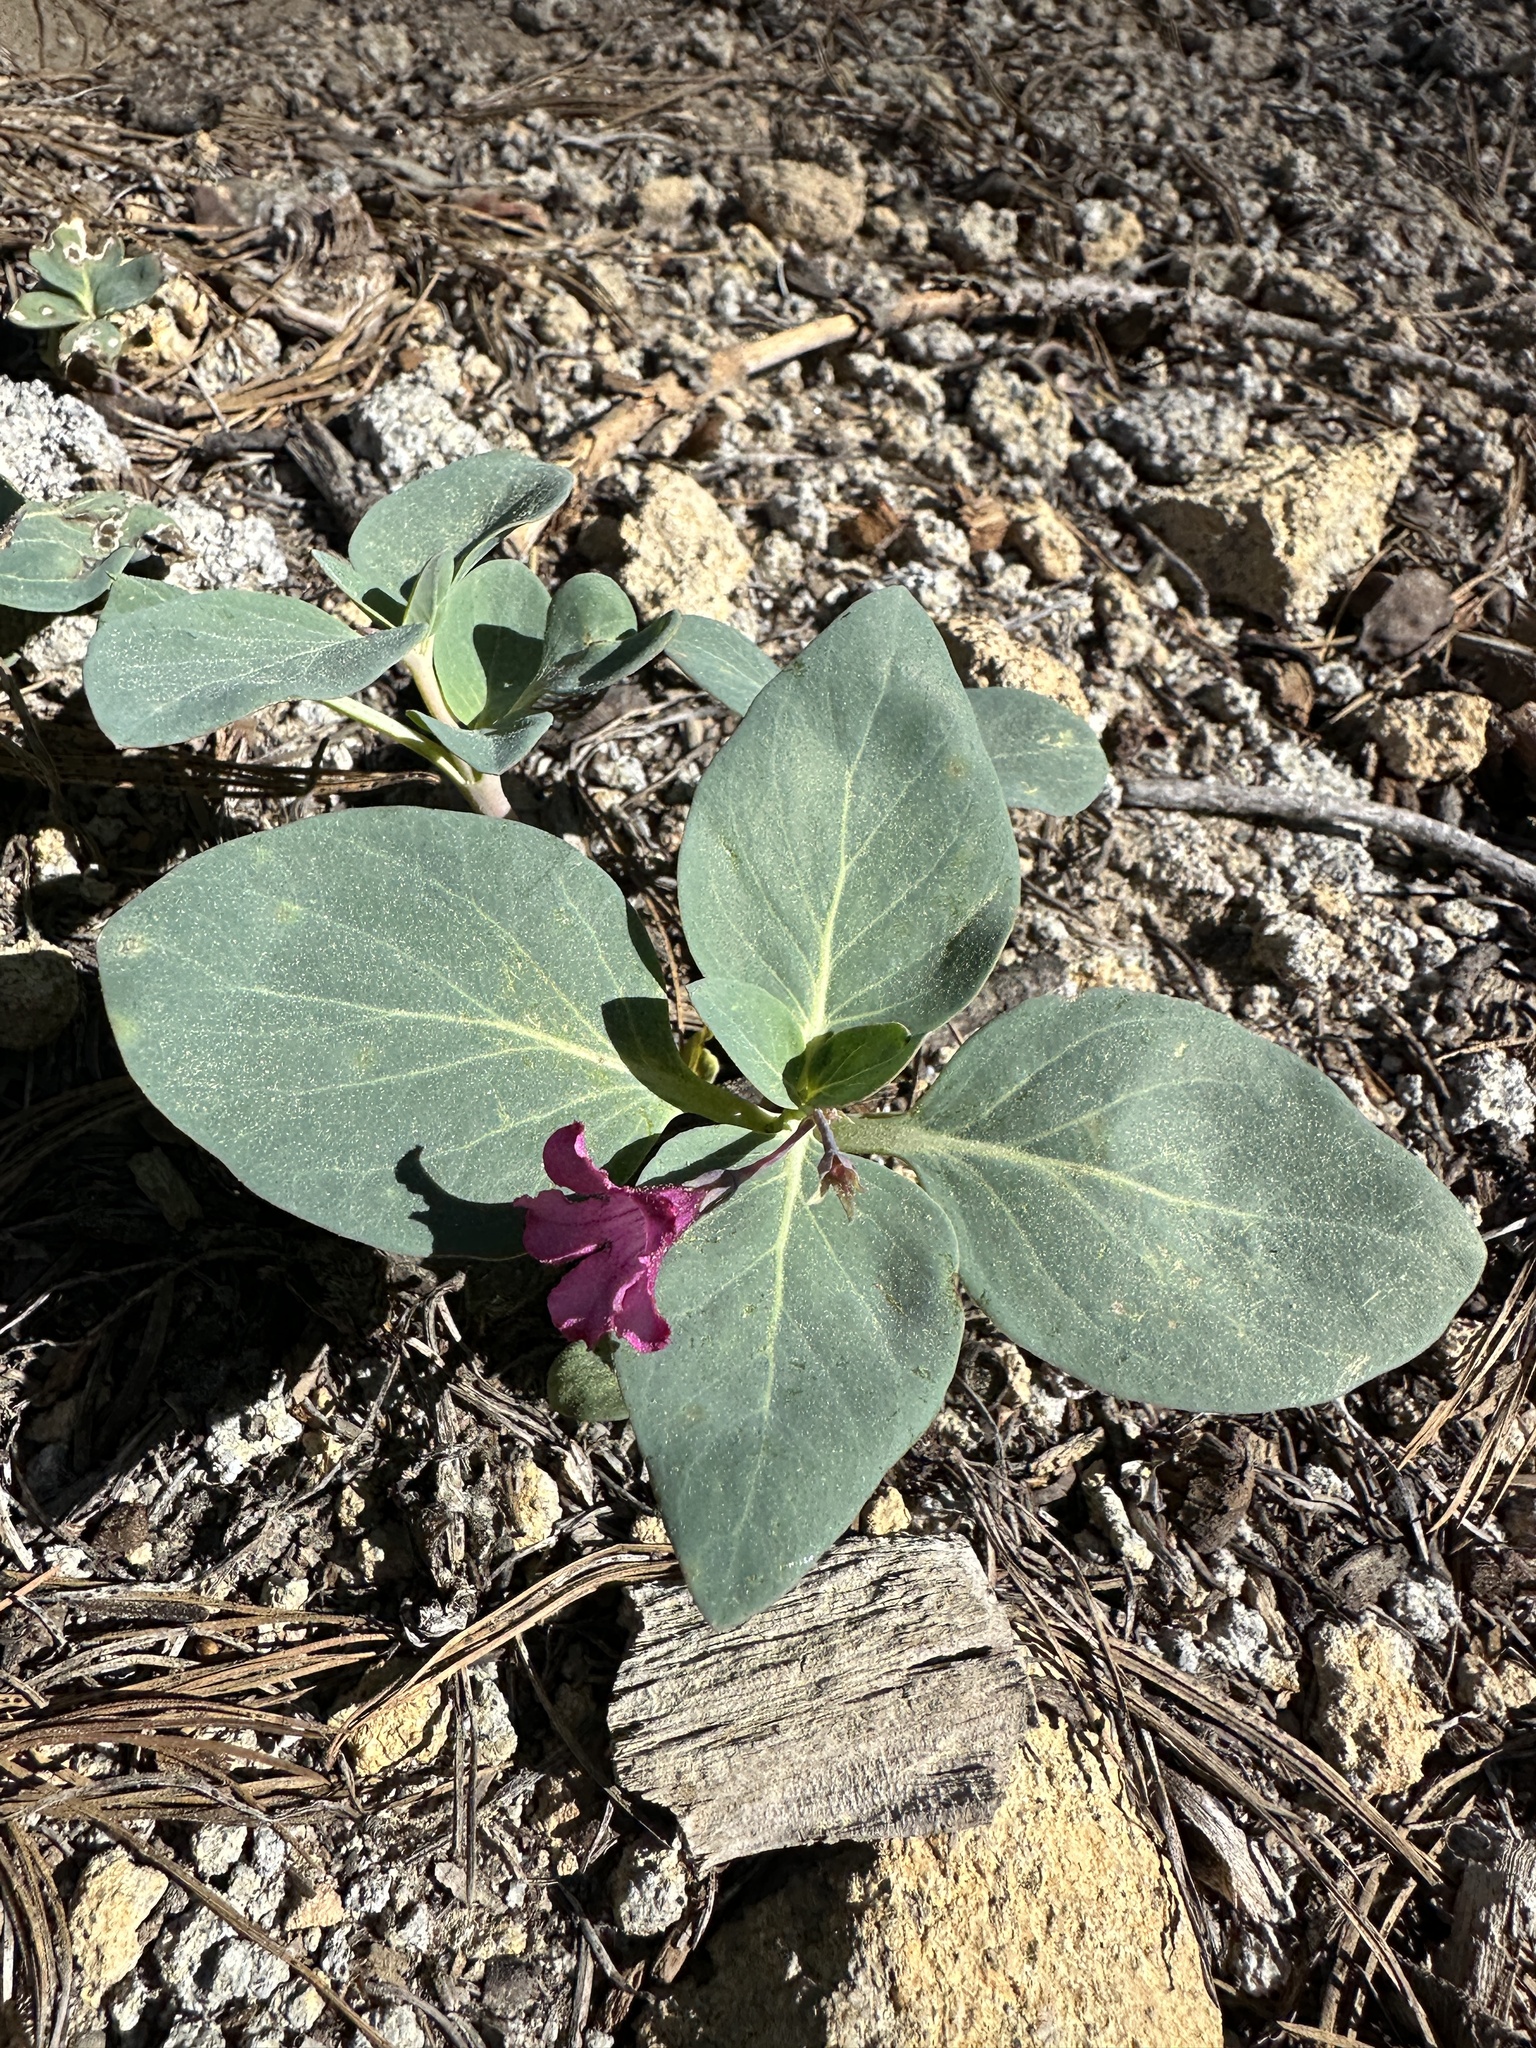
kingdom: Plantae
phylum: Tracheophyta
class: Magnoliopsida
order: Gentianales
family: Apocynaceae
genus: Cycladenia
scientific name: Cycladenia humilis
